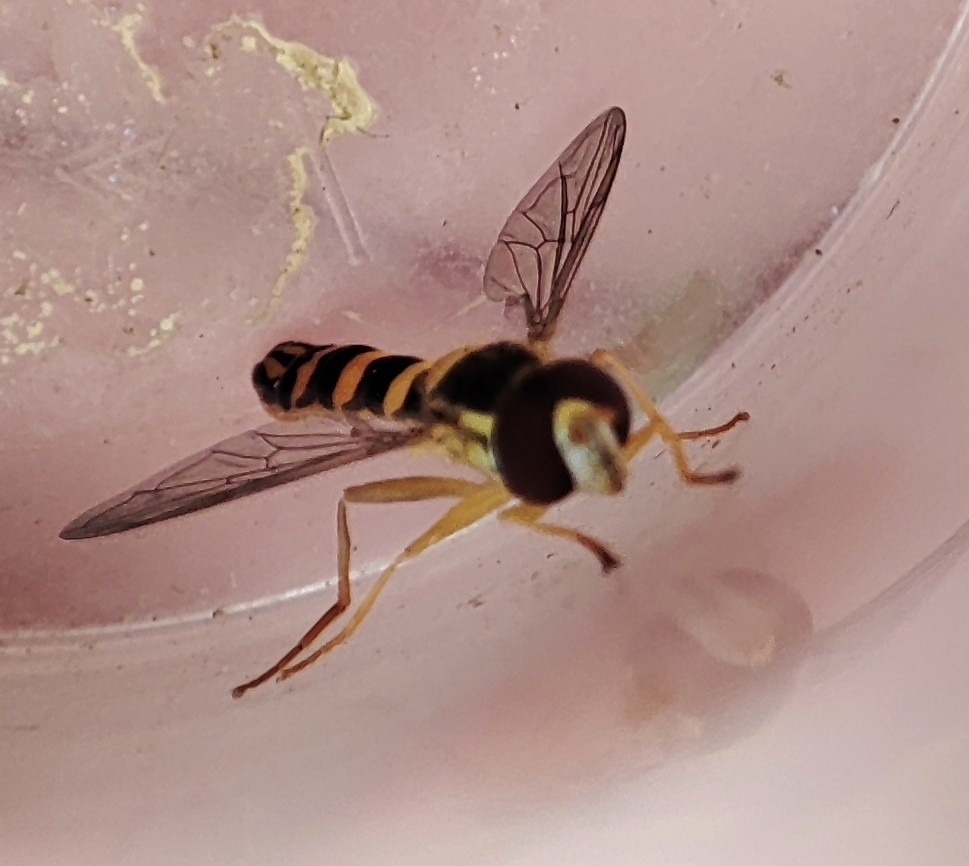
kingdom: Animalia
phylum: Arthropoda
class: Insecta
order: Diptera
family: Syrphidae
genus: Sphaerophoria
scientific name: Sphaerophoria scripta
